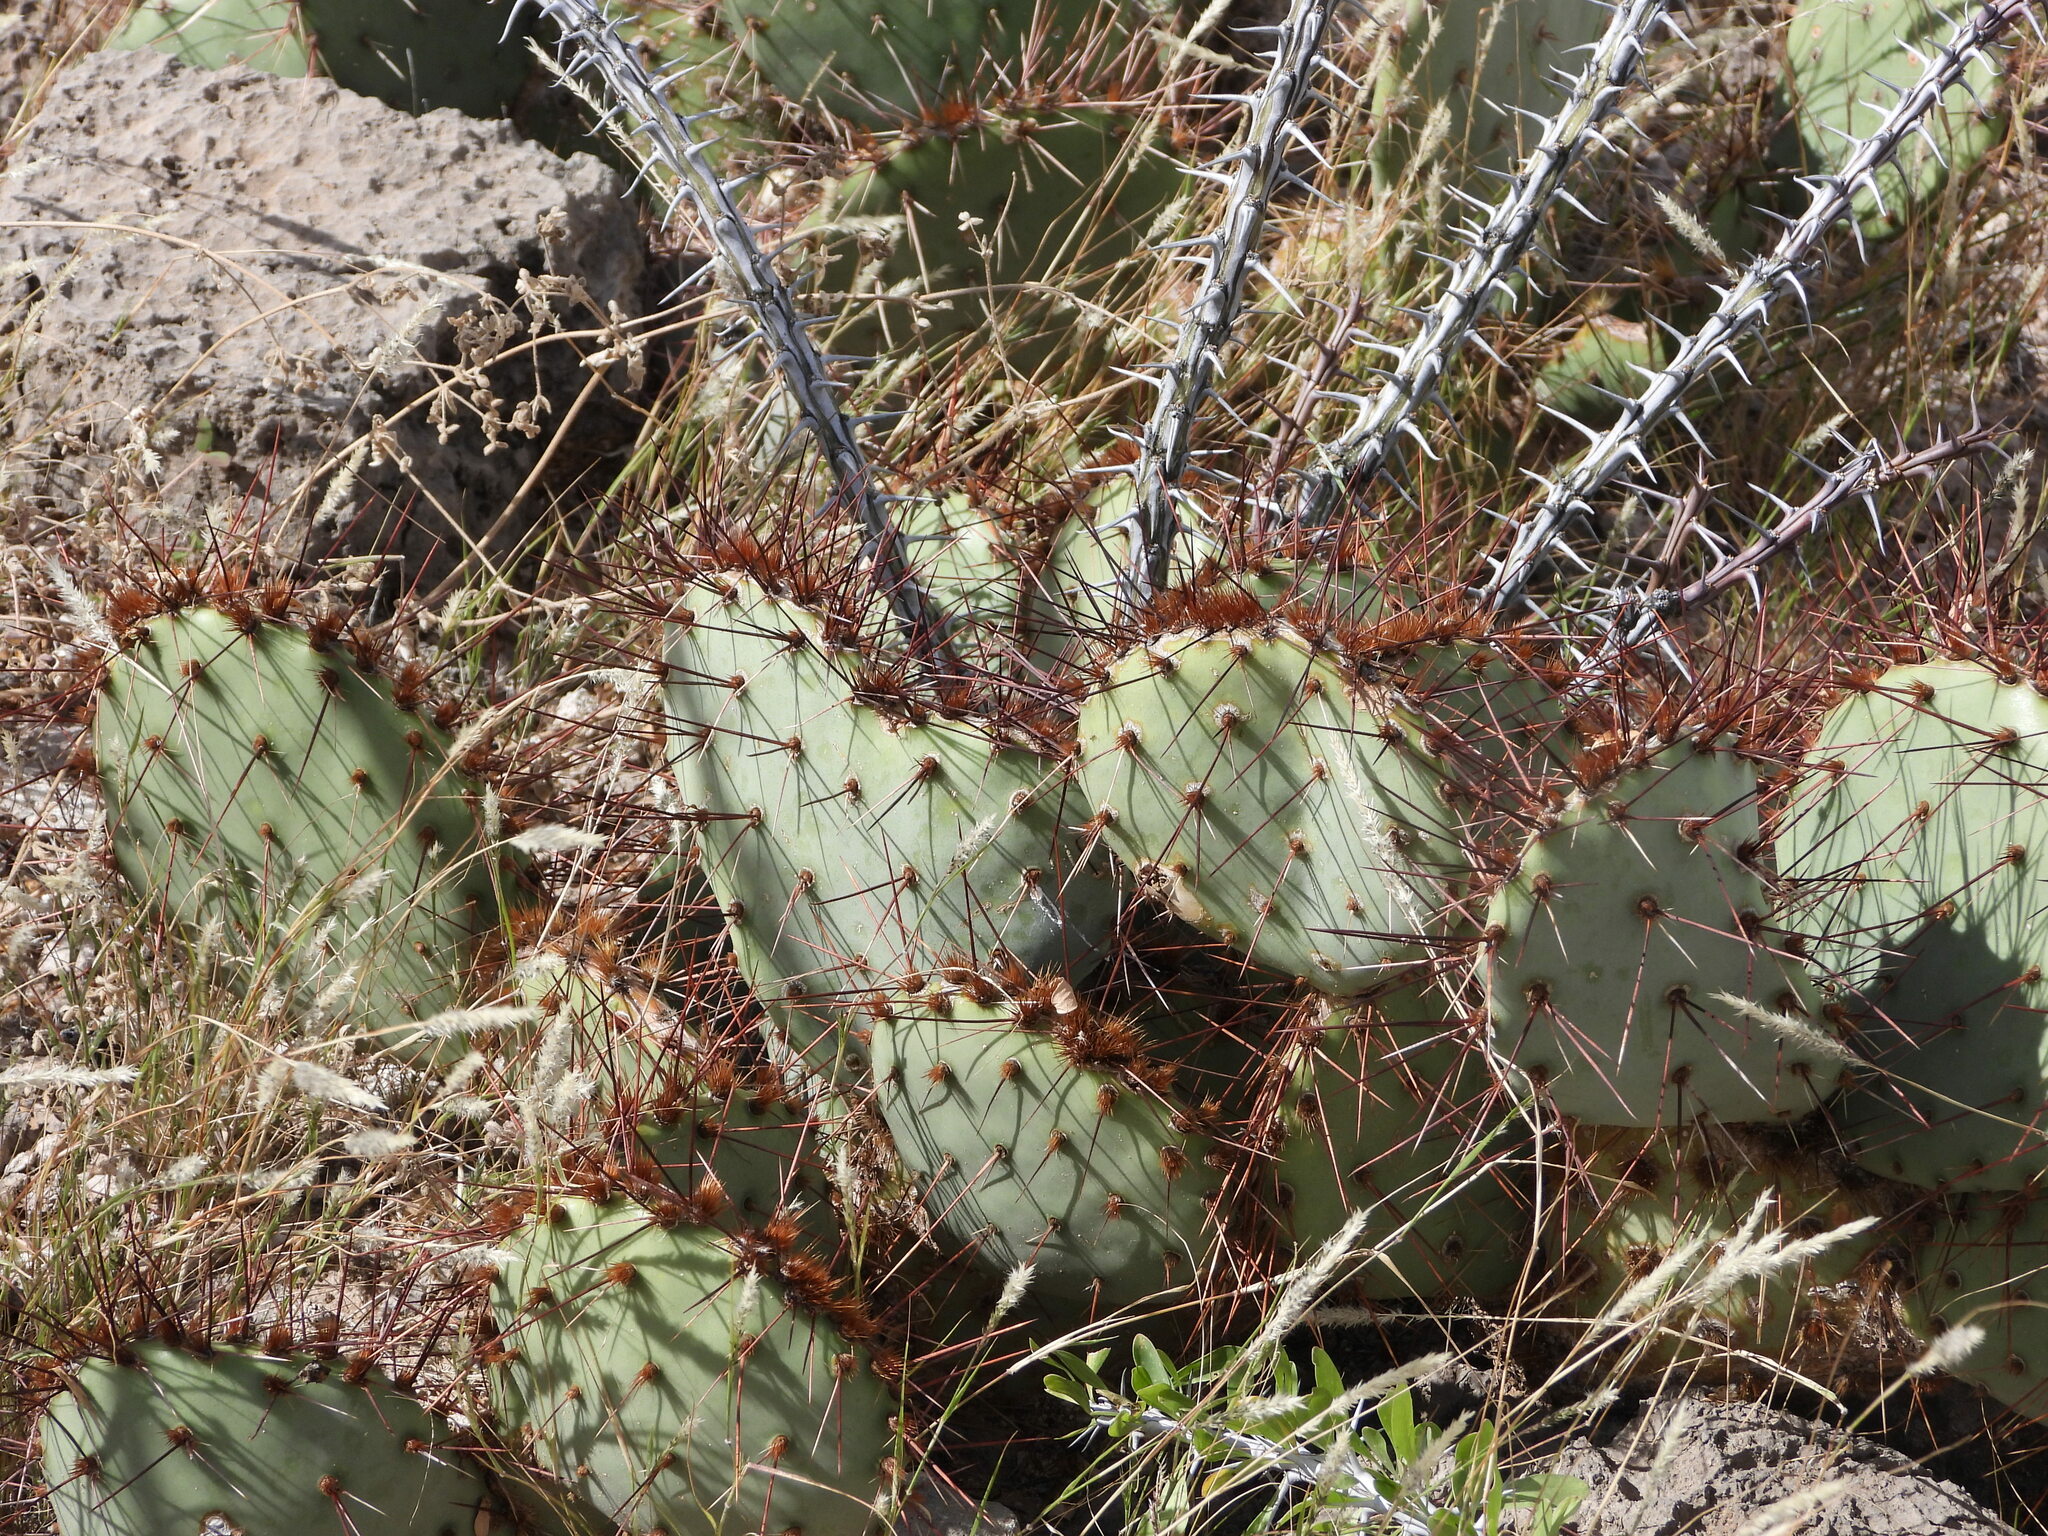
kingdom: Plantae
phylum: Tracheophyta
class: Magnoliopsida
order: Caryophyllales
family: Cactaceae
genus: Opuntia
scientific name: Opuntia phaeacantha
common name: New mexico prickly-pear
